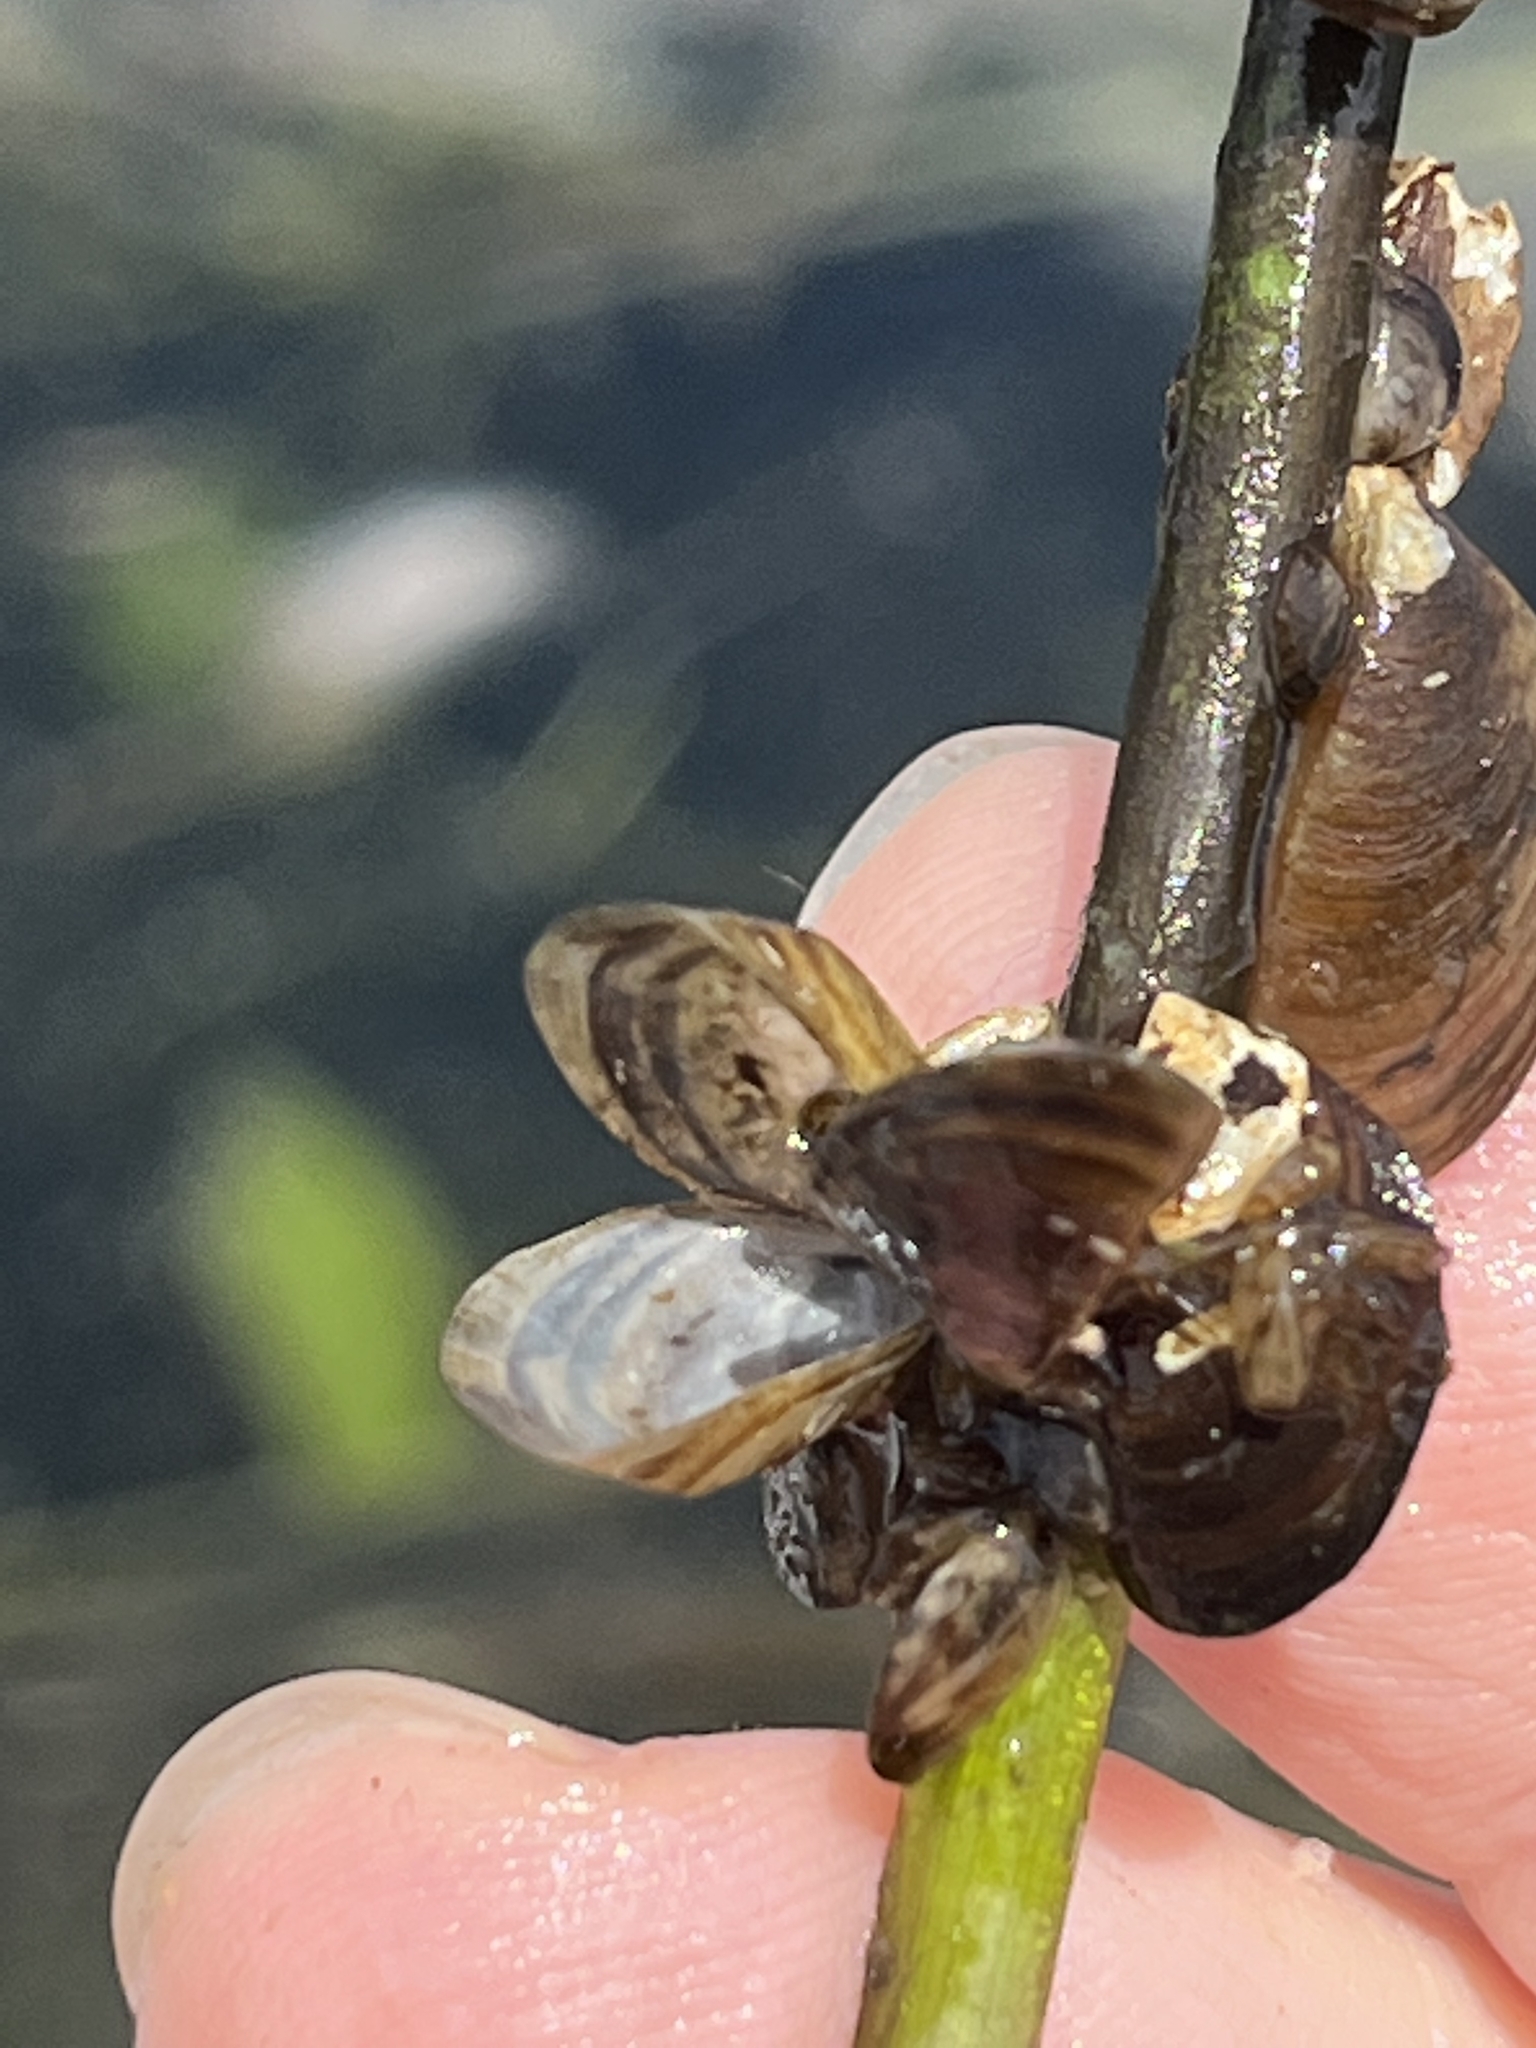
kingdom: Animalia
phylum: Mollusca
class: Bivalvia
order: Myida
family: Dreissenidae
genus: Dreissena
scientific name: Dreissena polymorpha
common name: Zebra mussel
